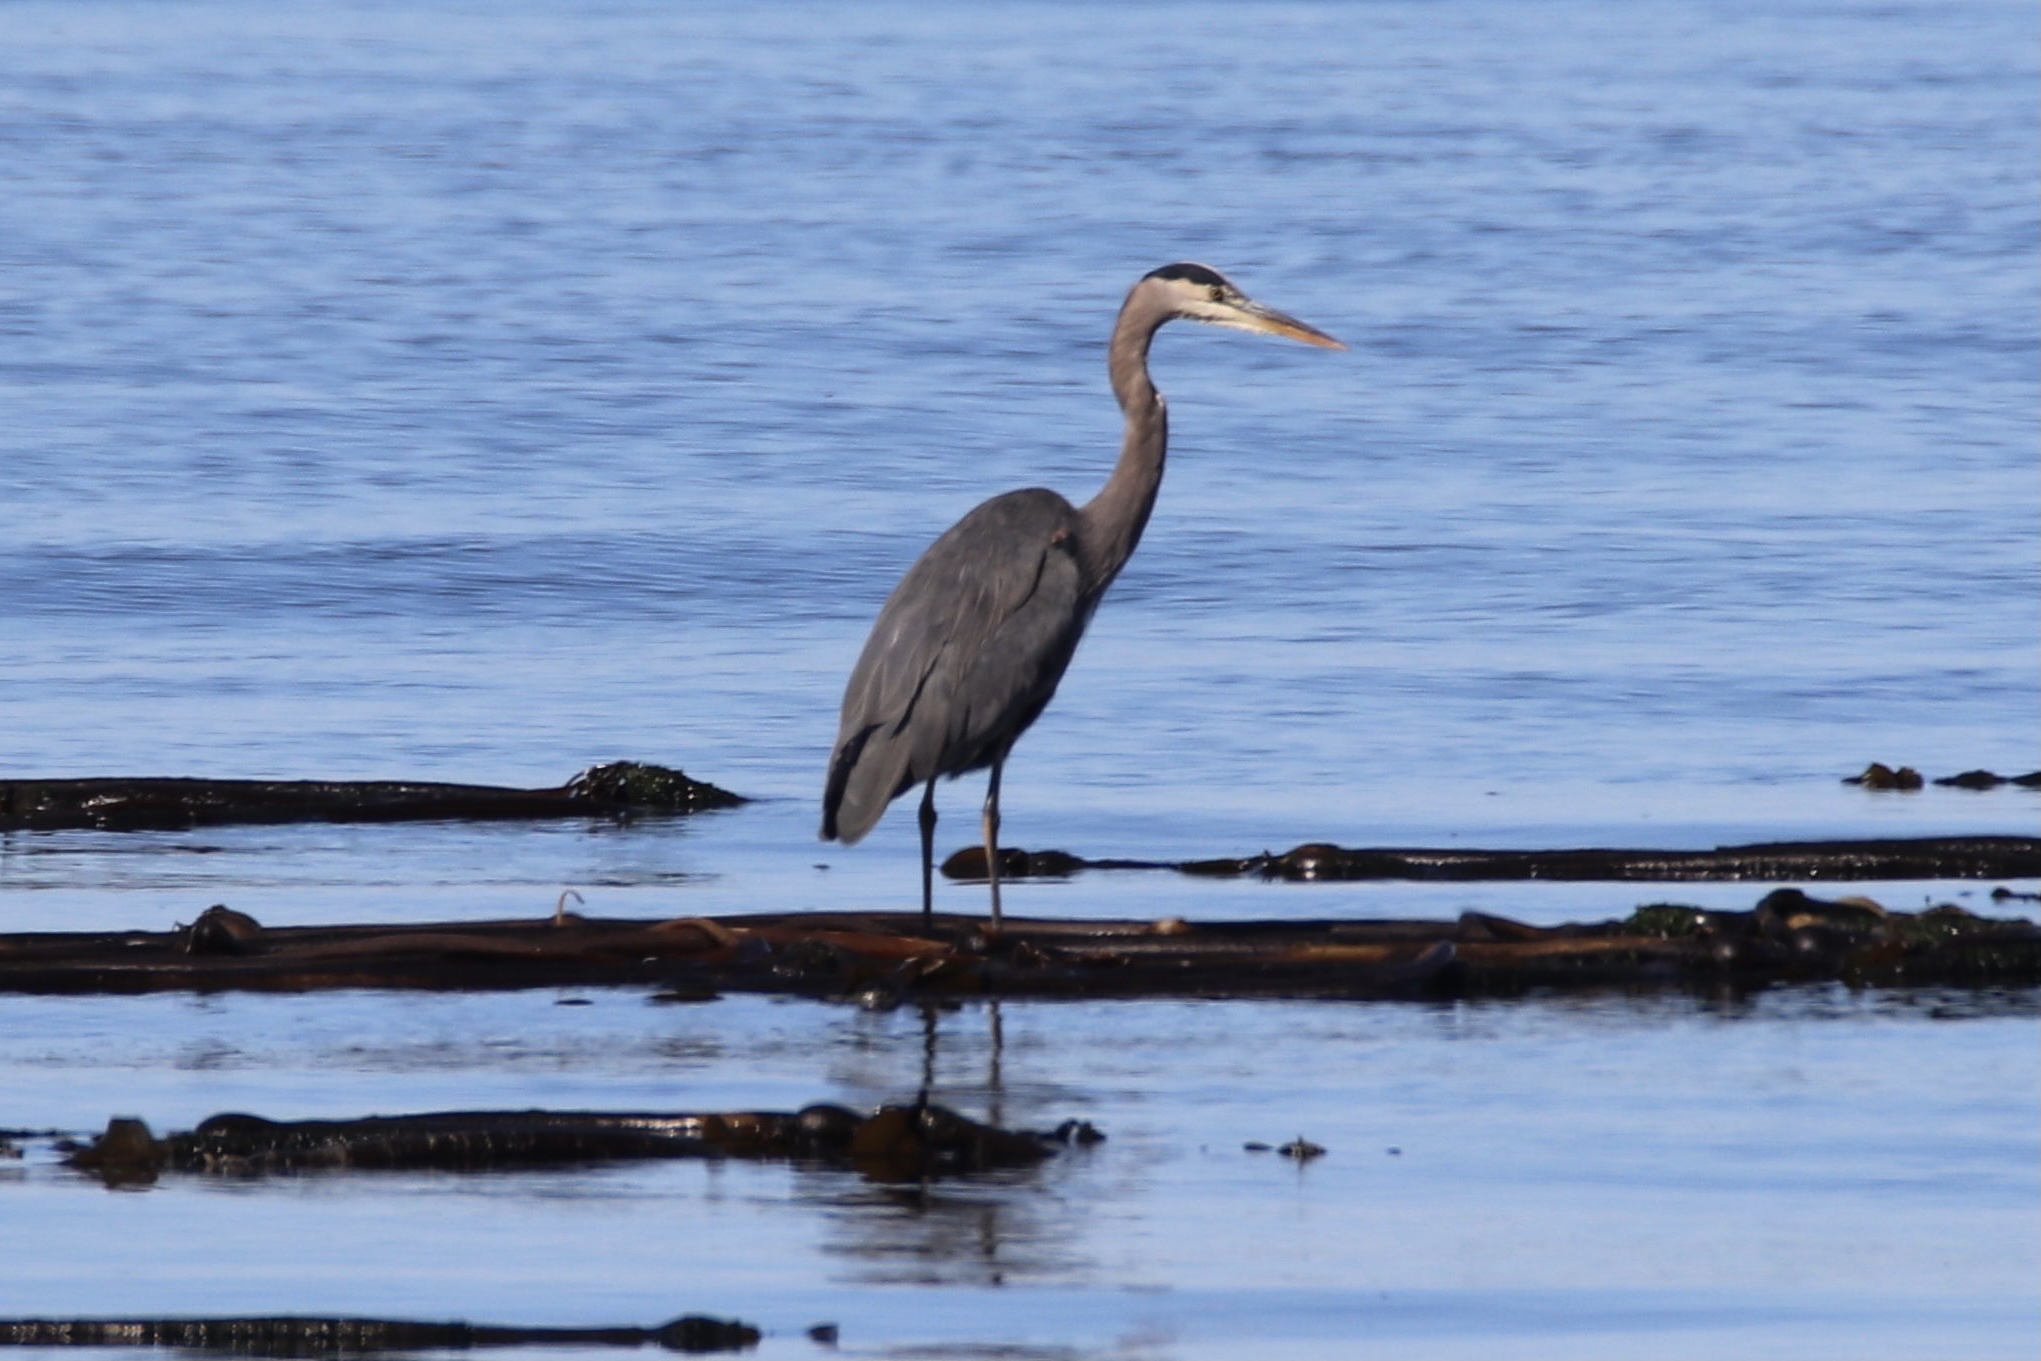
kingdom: Animalia
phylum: Chordata
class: Aves
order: Pelecaniformes
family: Ardeidae
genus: Ardea
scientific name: Ardea herodias
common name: Great blue heron
